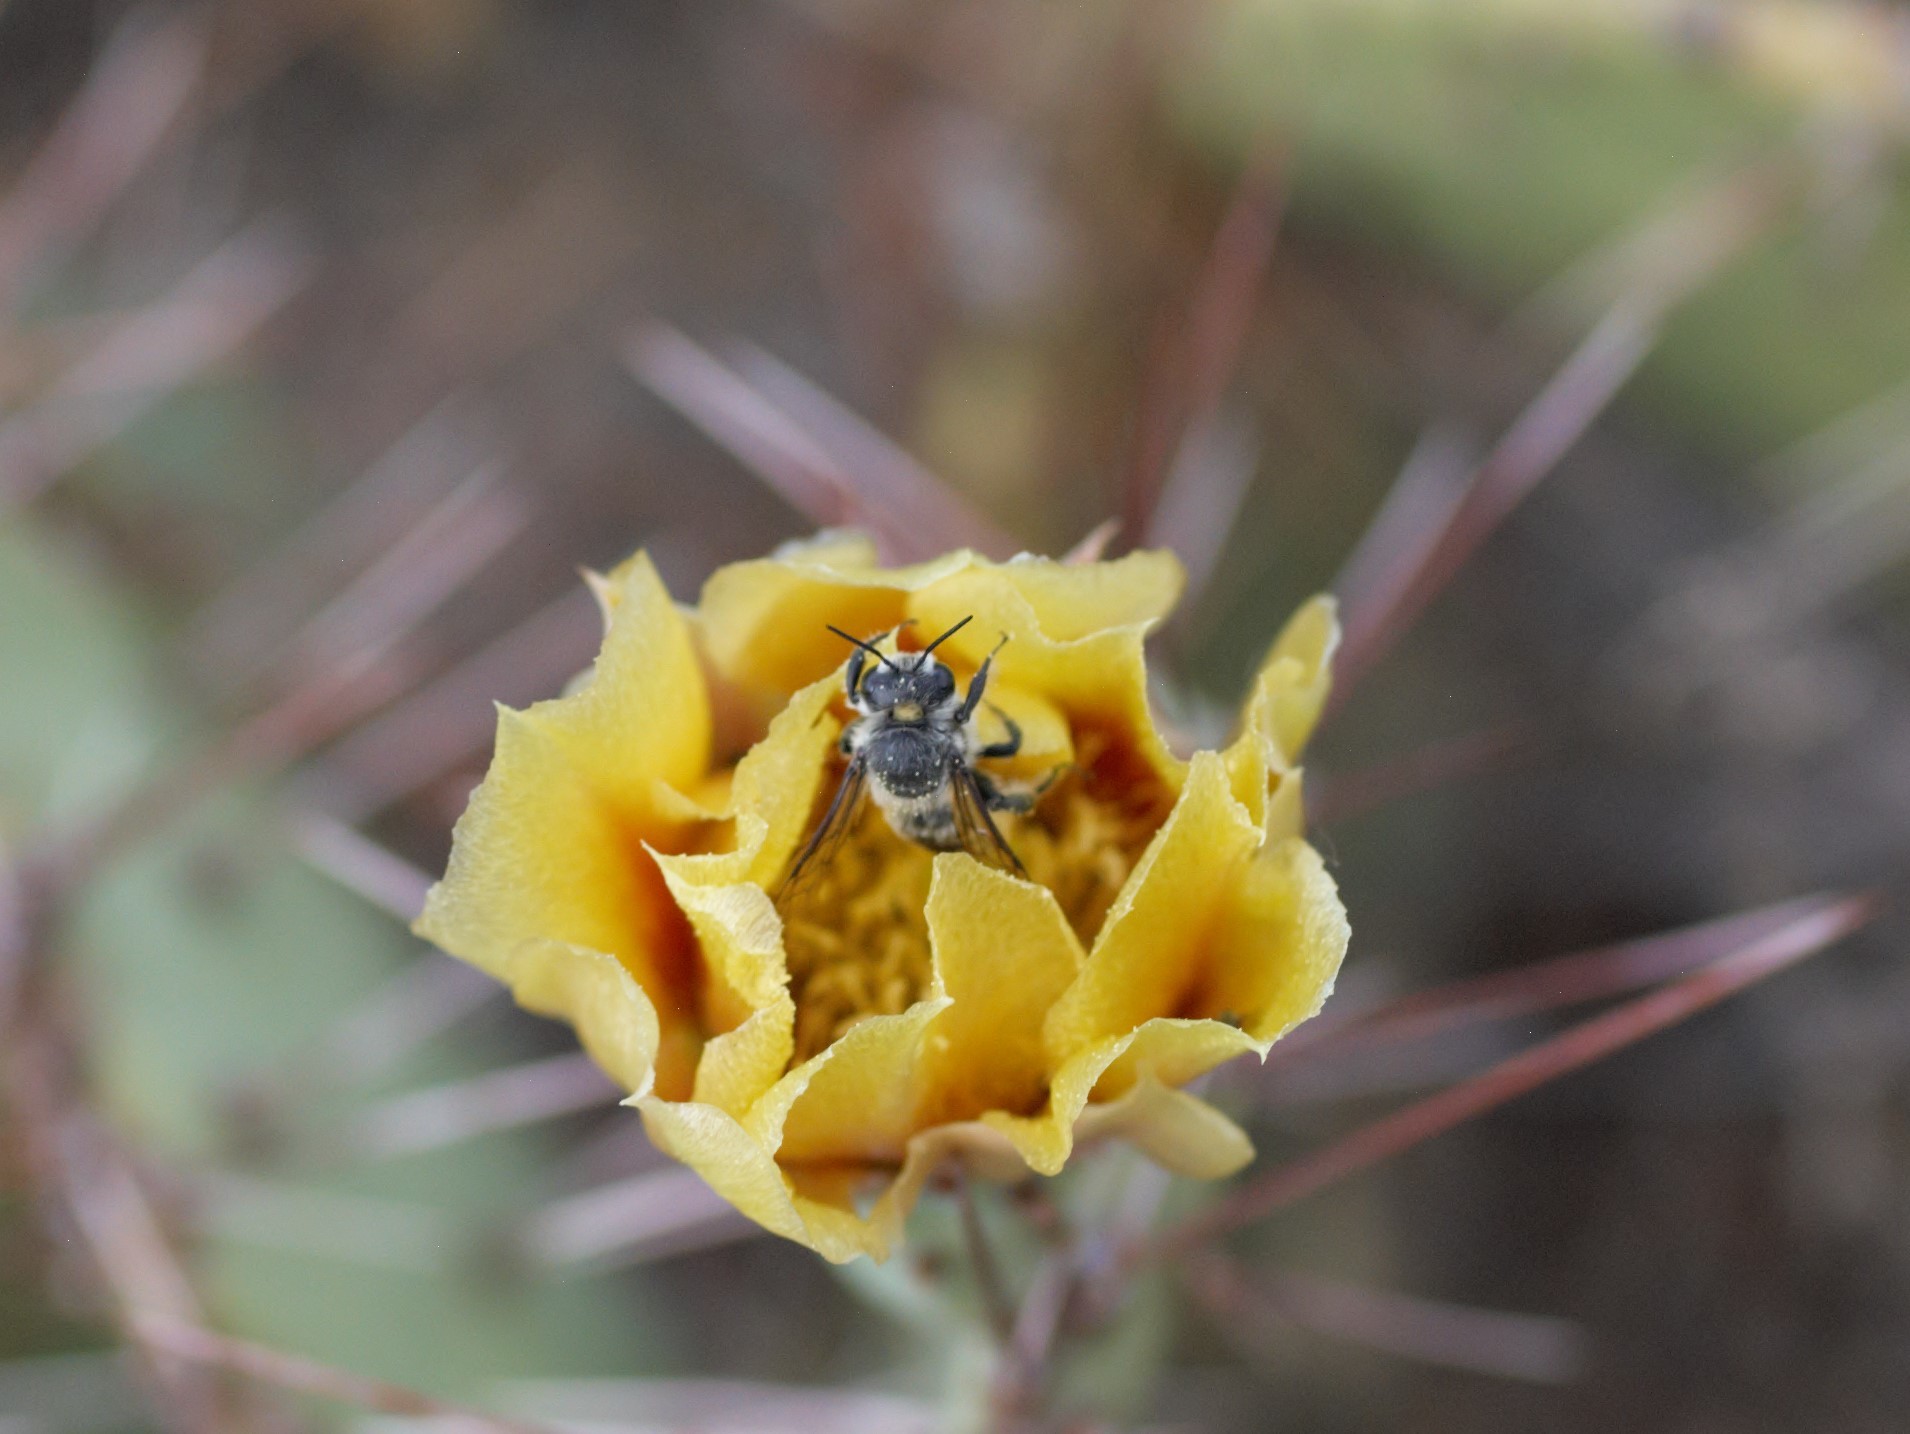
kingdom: Animalia
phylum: Arthropoda
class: Insecta
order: Hymenoptera
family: Megachilidae
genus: Lithurgopsis
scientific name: Lithurgopsis apicalis
